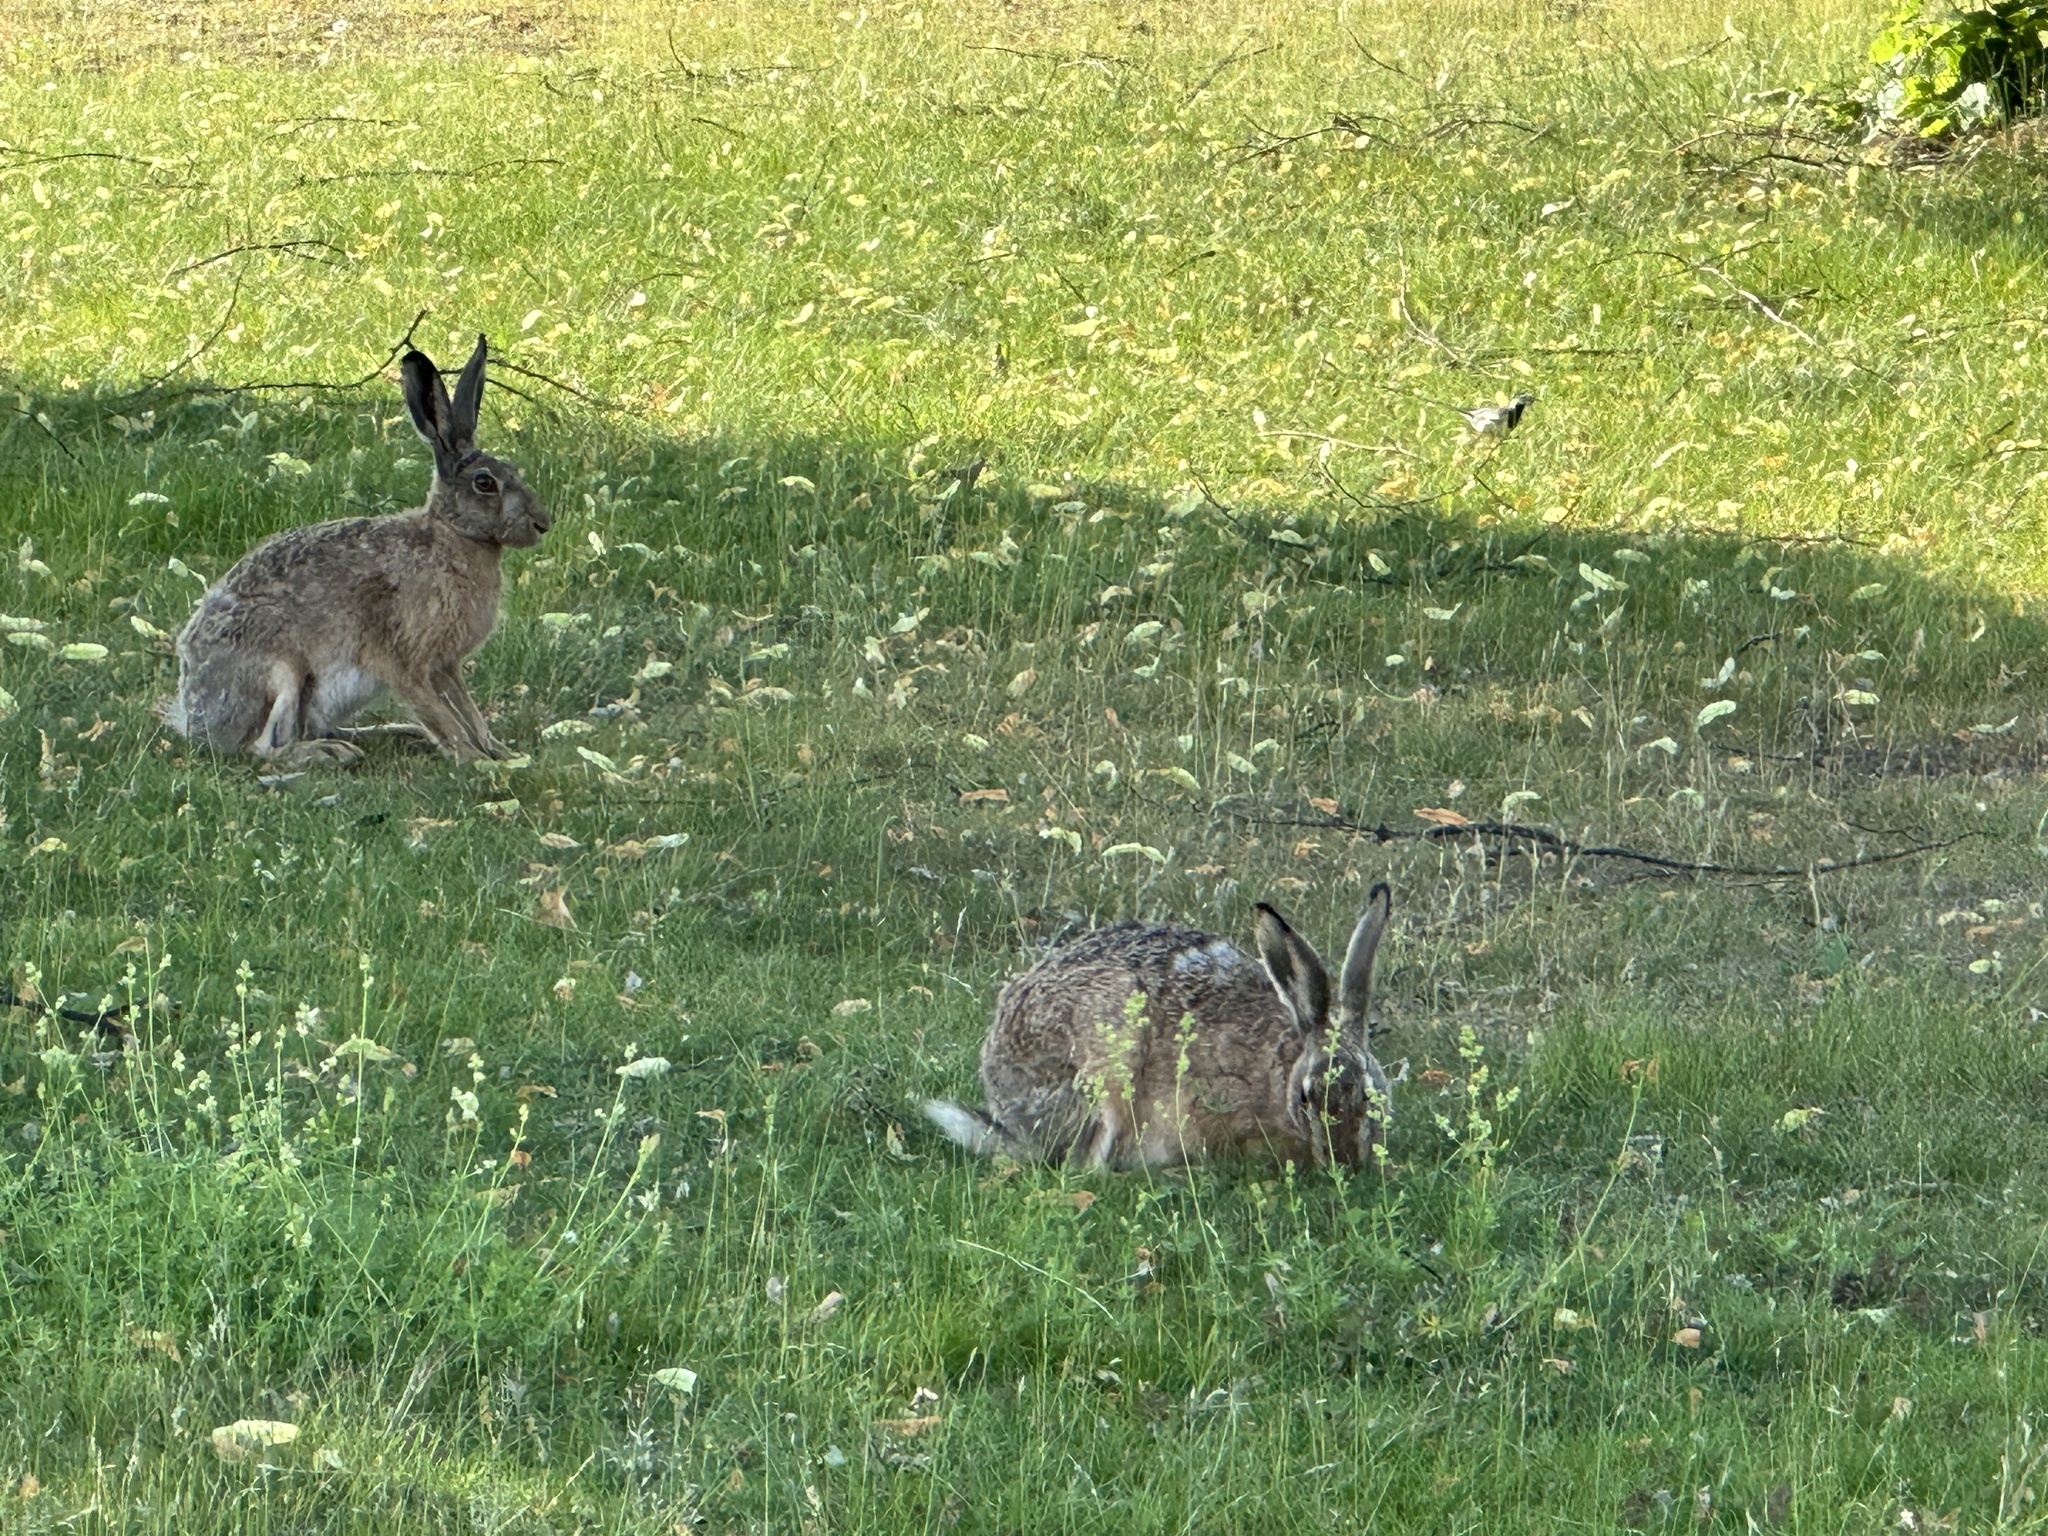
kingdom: Animalia
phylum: Chordata
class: Mammalia
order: Lagomorpha
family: Leporidae
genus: Lepus
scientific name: Lepus europaeus
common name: European hare
